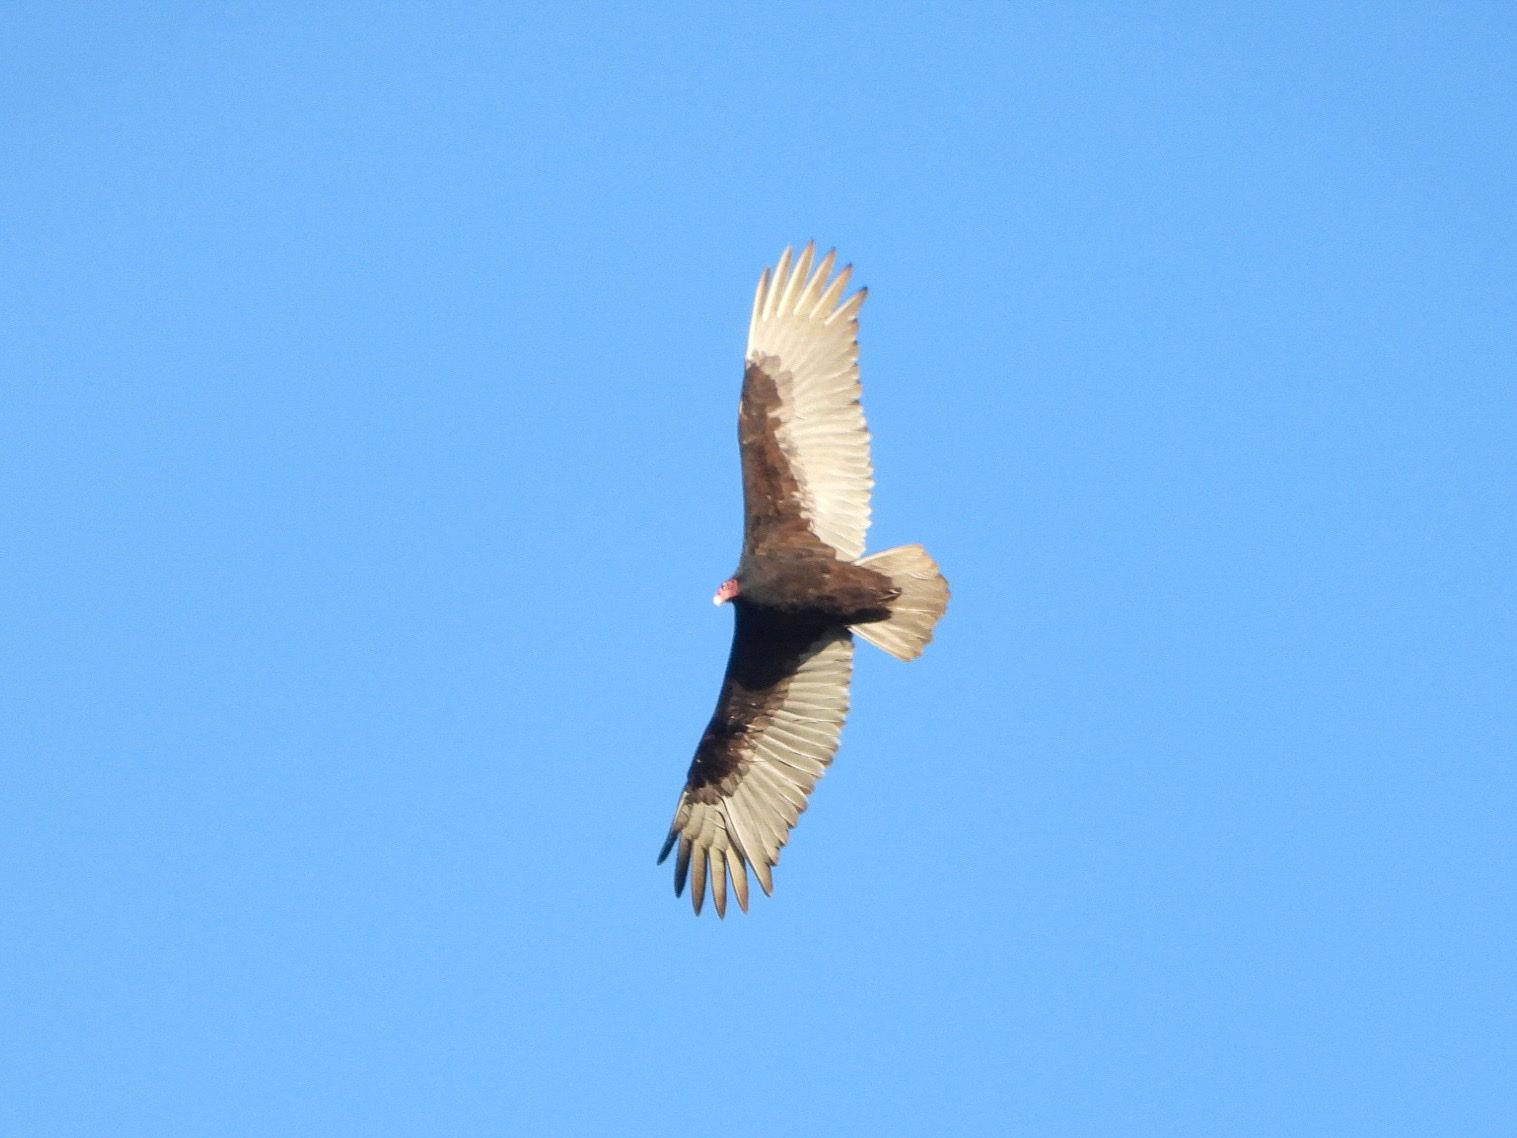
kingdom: Animalia
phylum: Chordata
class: Aves
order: Accipitriformes
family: Cathartidae
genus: Cathartes
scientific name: Cathartes aura
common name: Turkey vulture
